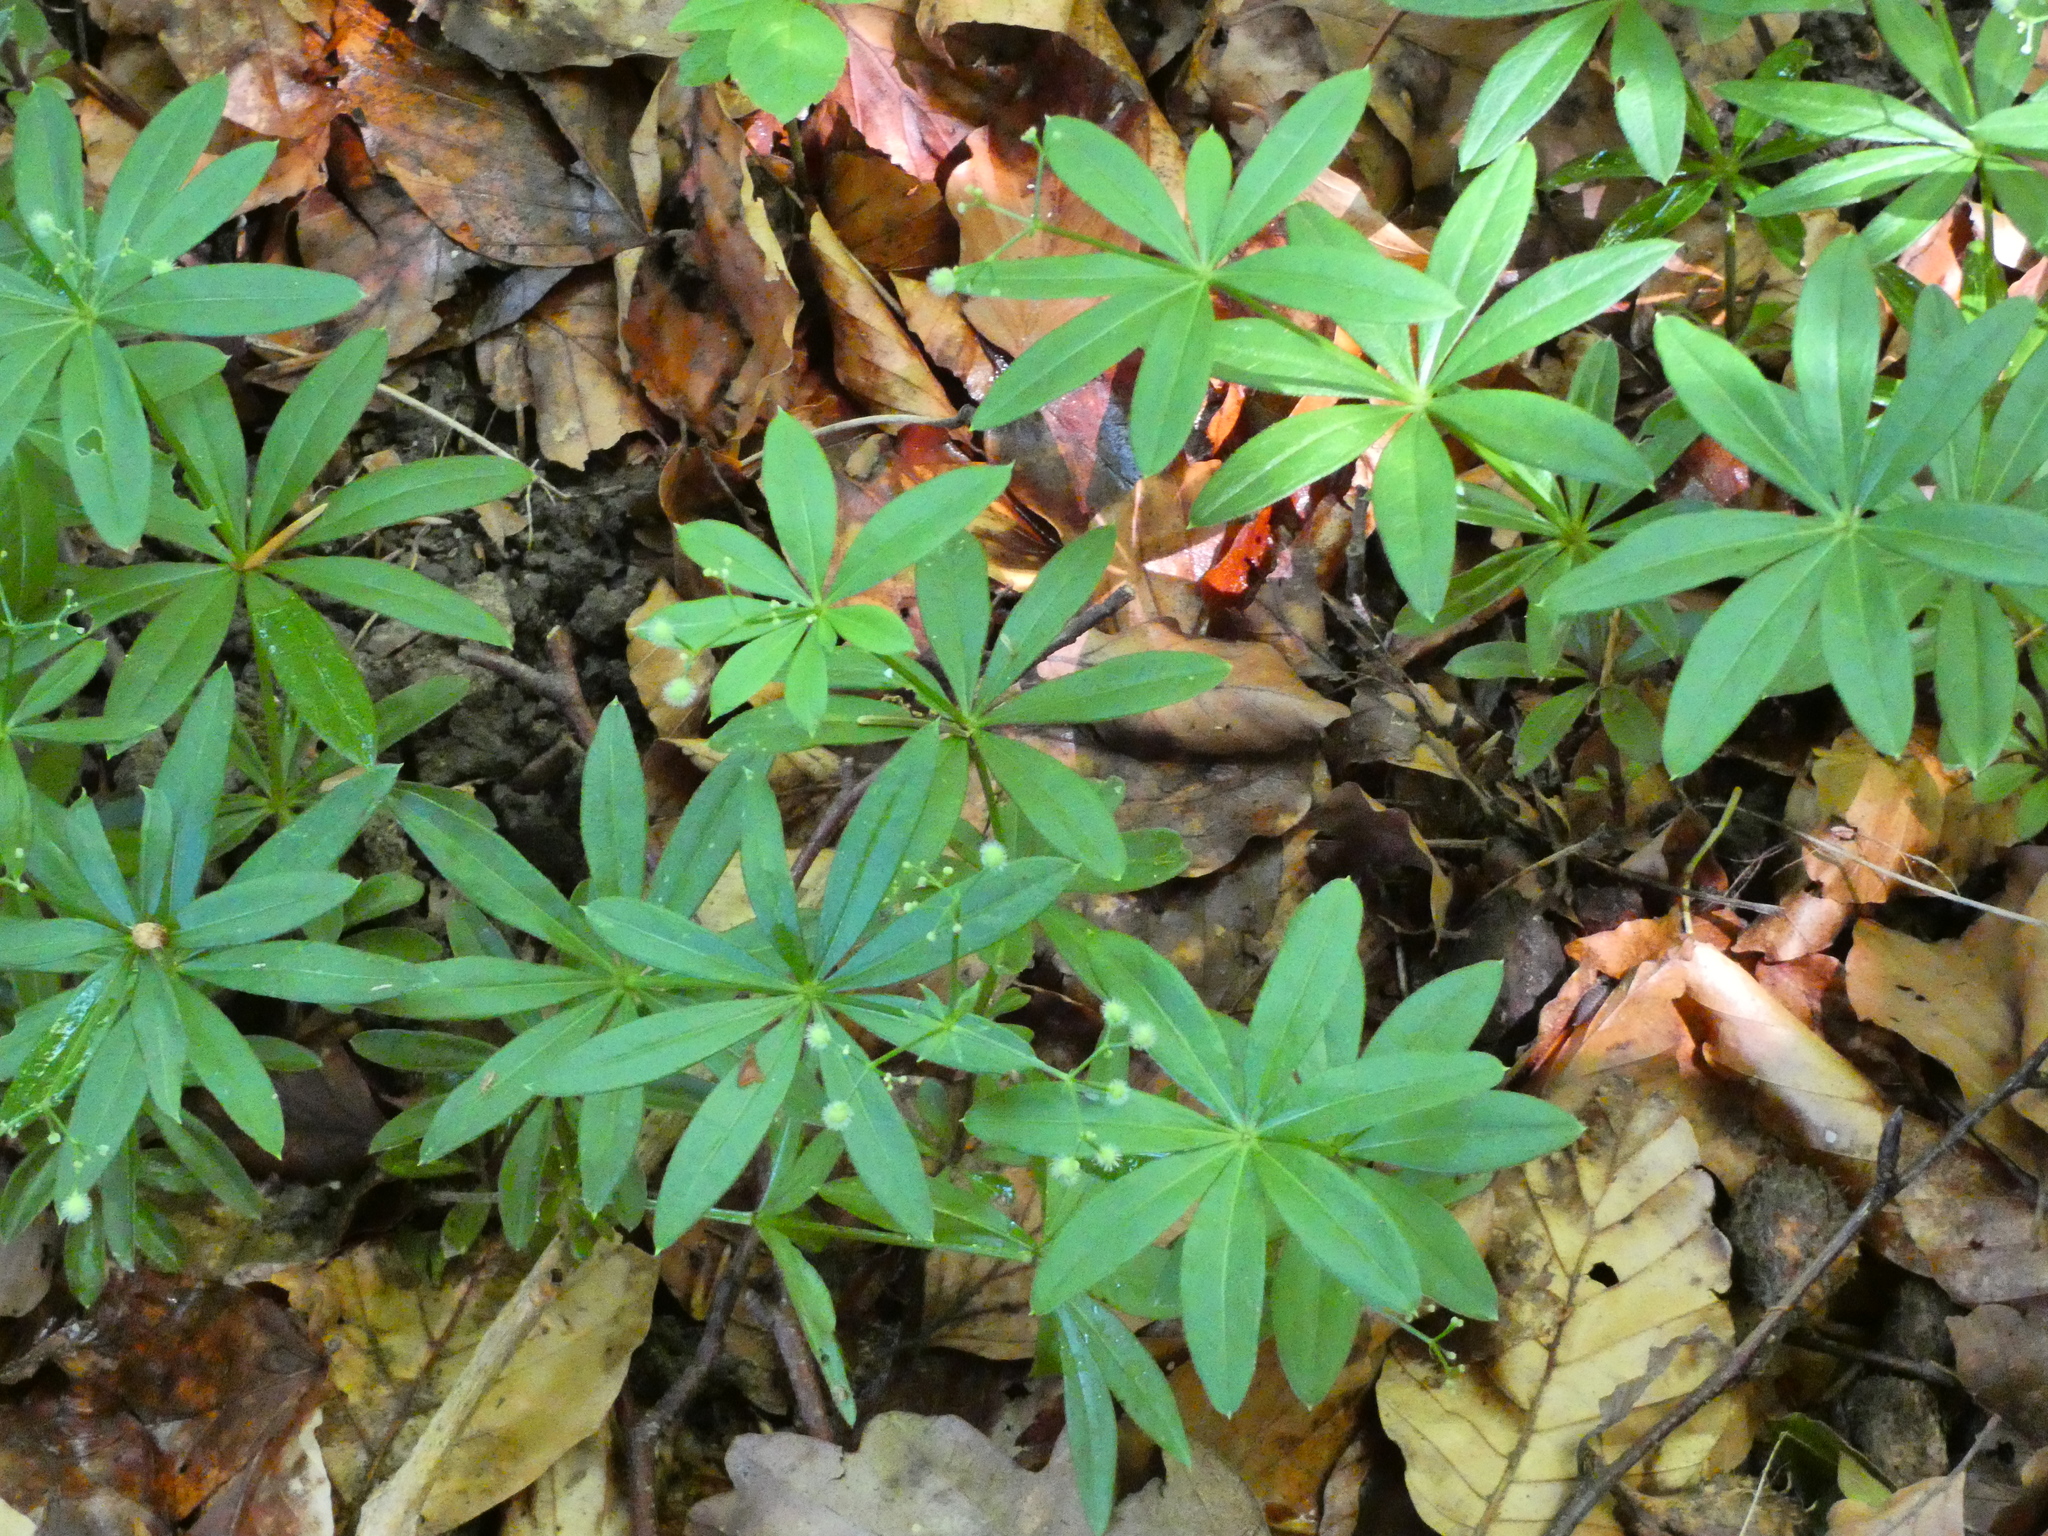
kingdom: Plantae
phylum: Tracheophyta
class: Magnoliopsida
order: Gentianales
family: Rubiaceae
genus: Galium
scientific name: Galium odoratum
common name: Sweet woodruff
